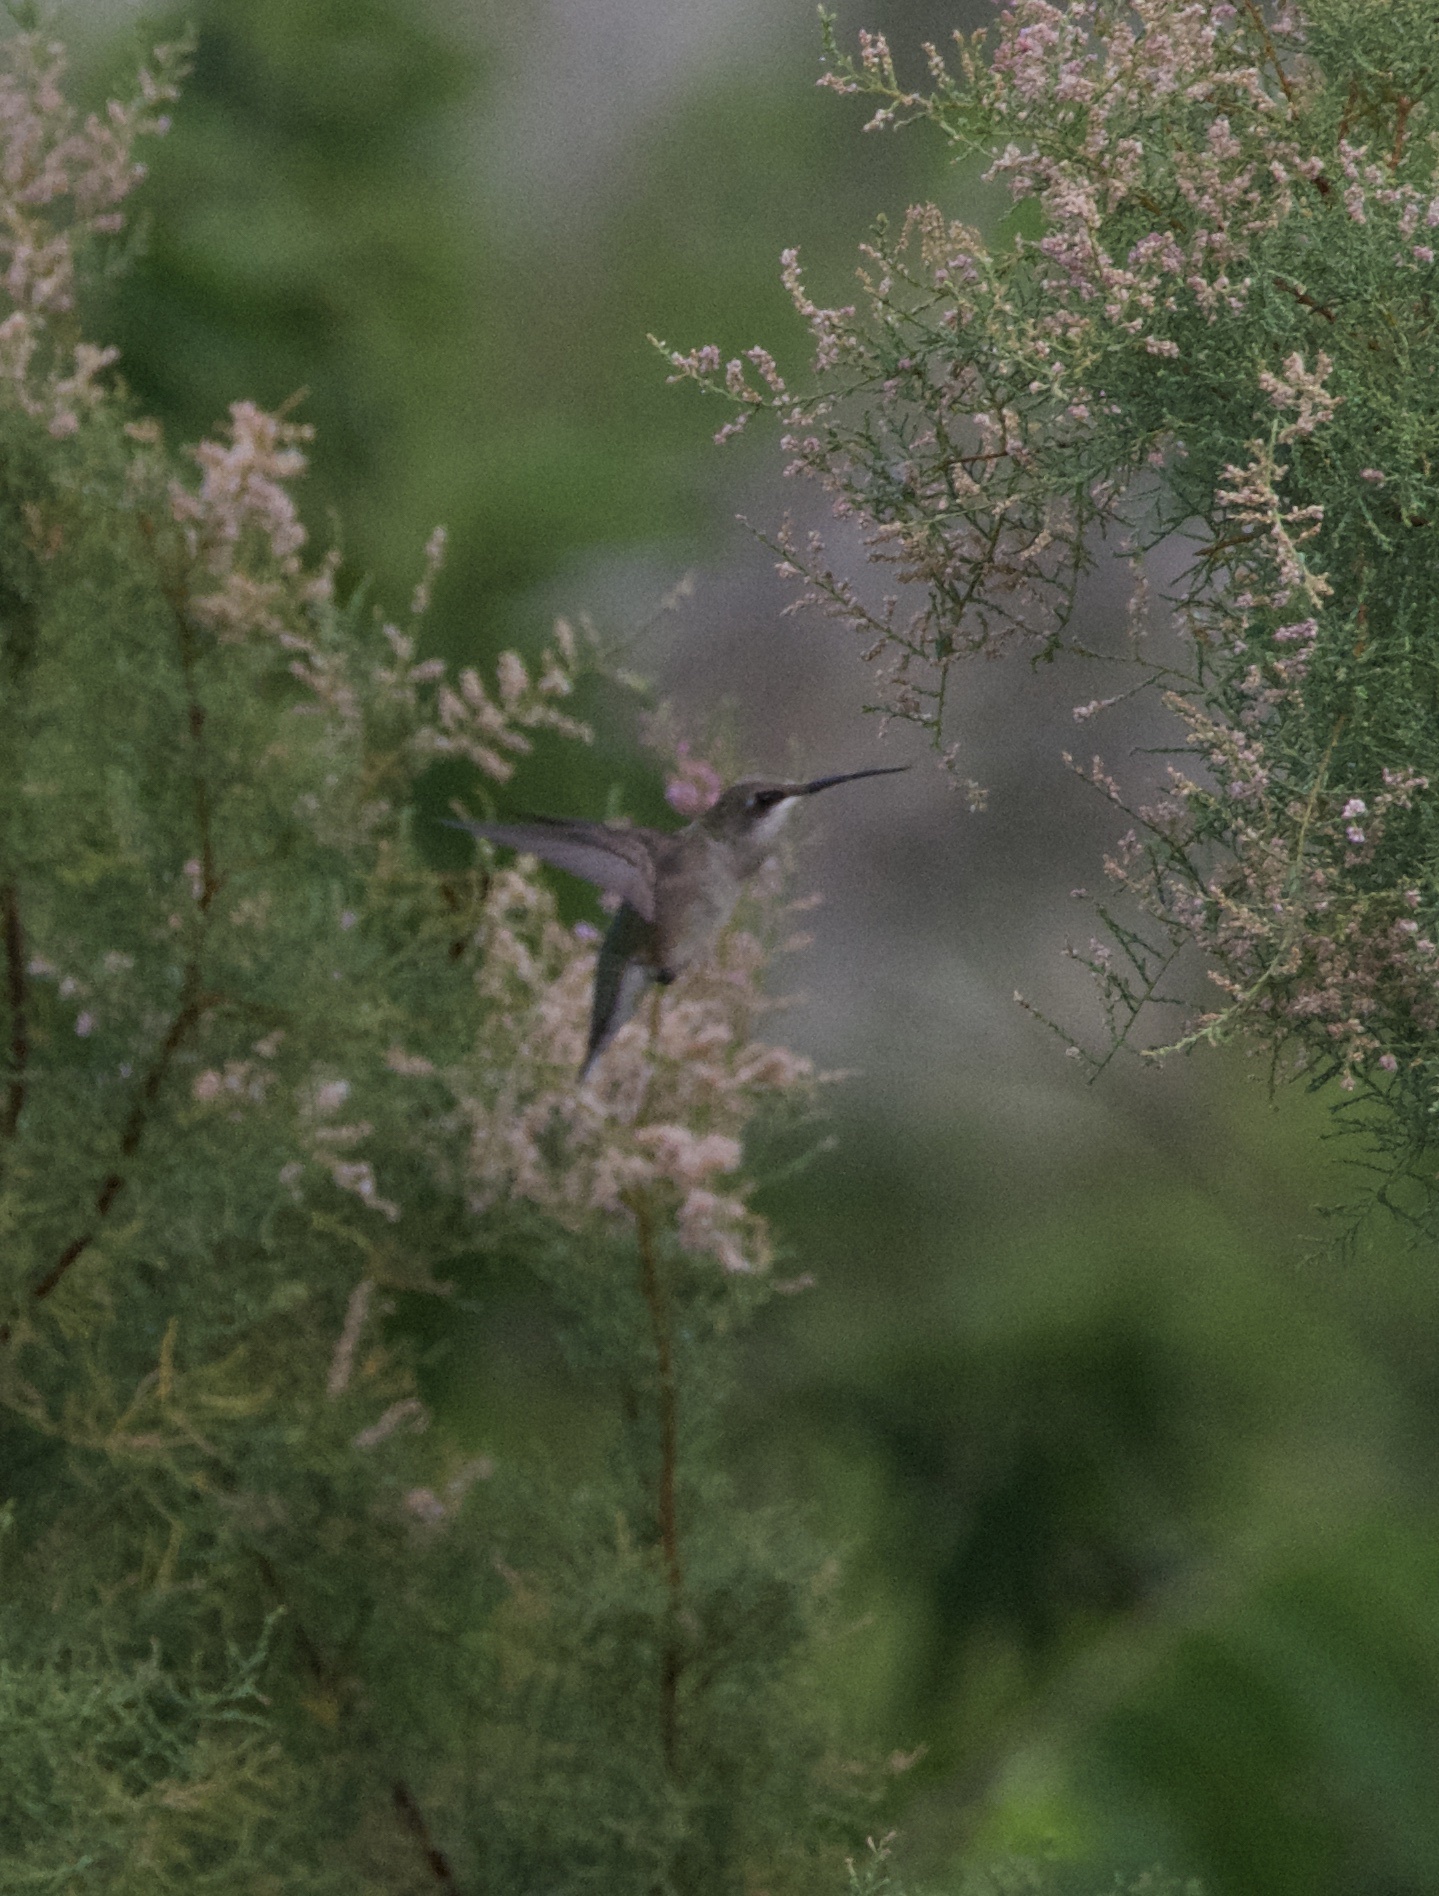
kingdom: Animalia
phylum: Chordata
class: Aves
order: Apodiformes
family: Trochilidae
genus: Archilochus
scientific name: Archilochus colubris
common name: Ruby-throated hummingbird
